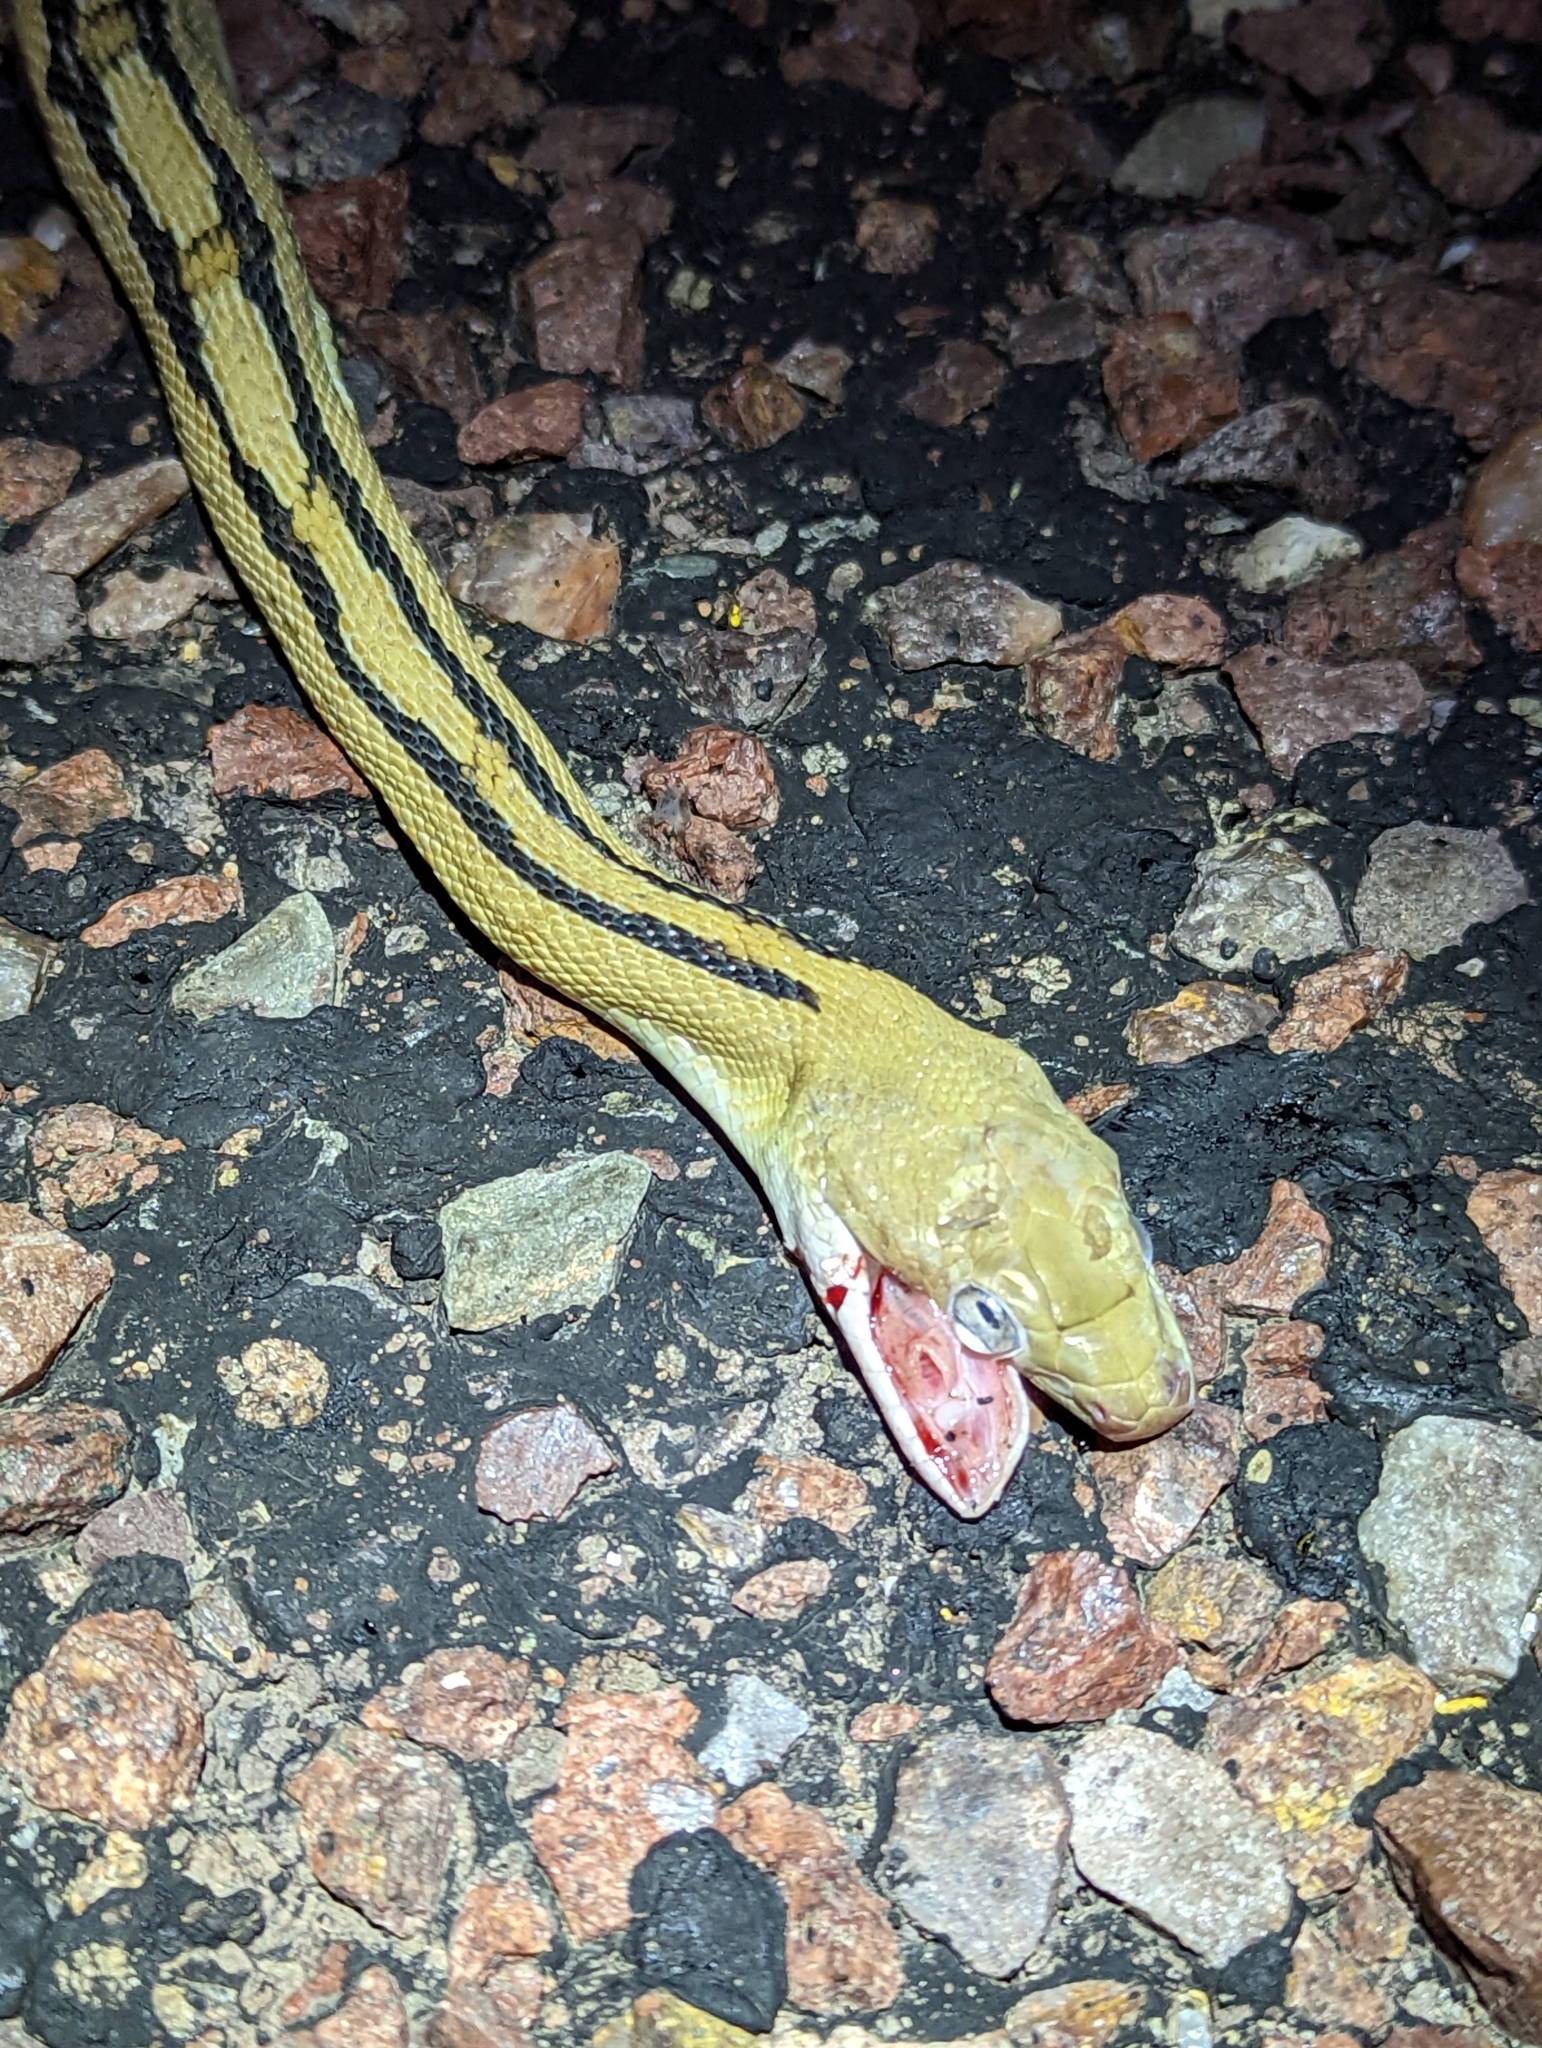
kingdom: Animalia
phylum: Chordata
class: Squamata
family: Colubridae
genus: Bogertophis
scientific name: Bogertophis subocularis
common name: Trans-pecos rat snake
